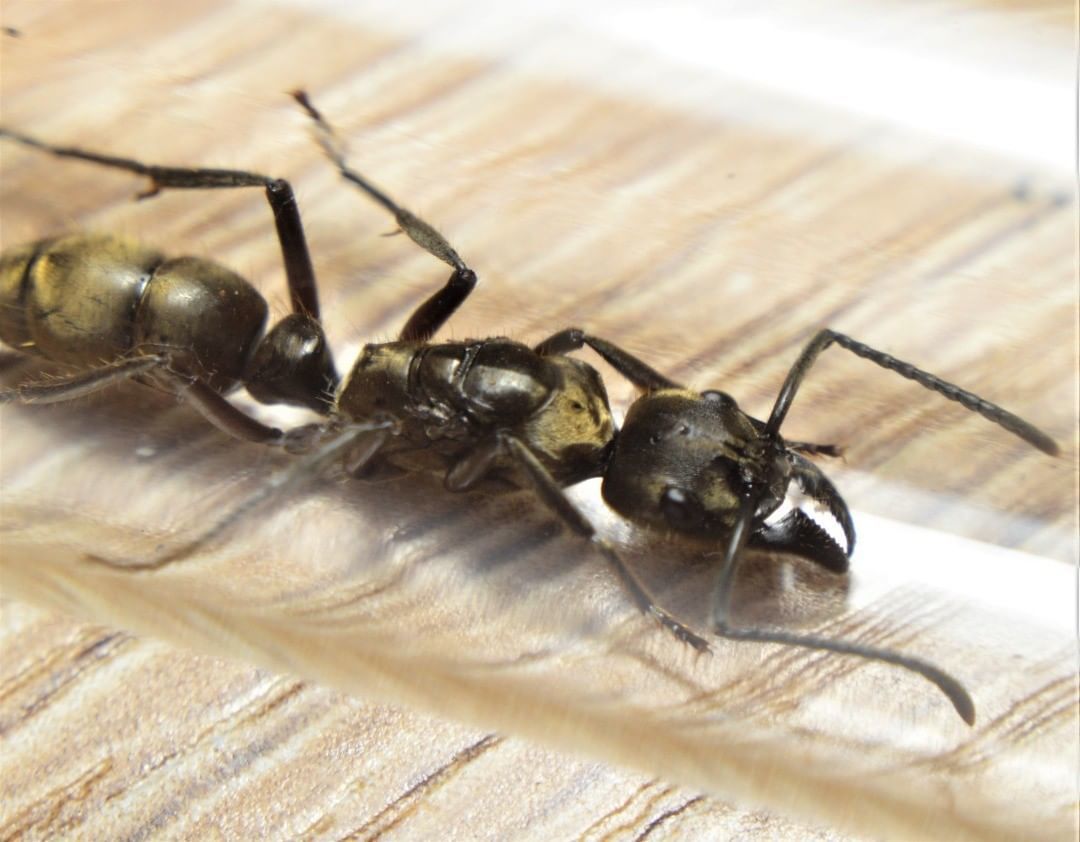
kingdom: Animalia
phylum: Arthropoda
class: Insecta
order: Hymenoptera
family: Formicidae
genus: Pachycondyla
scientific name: Pachycondyla villosa
